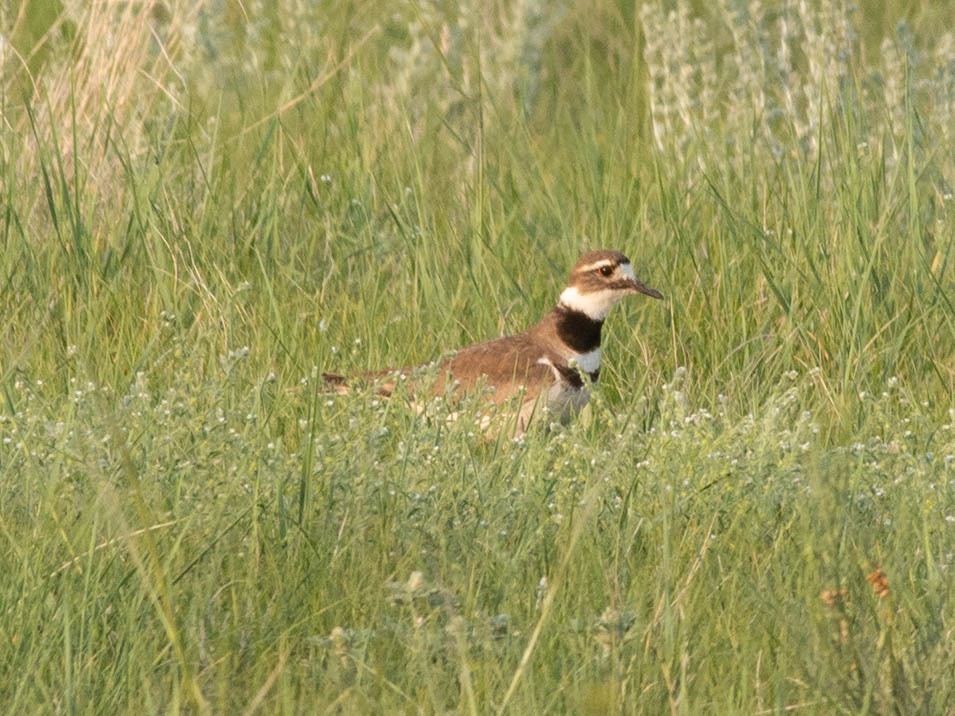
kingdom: Animalia
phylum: Chordata
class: Aves
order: Charadriiformes
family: Charadriidae
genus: Charadrius
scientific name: Charadrius vociferus
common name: Killdeer
